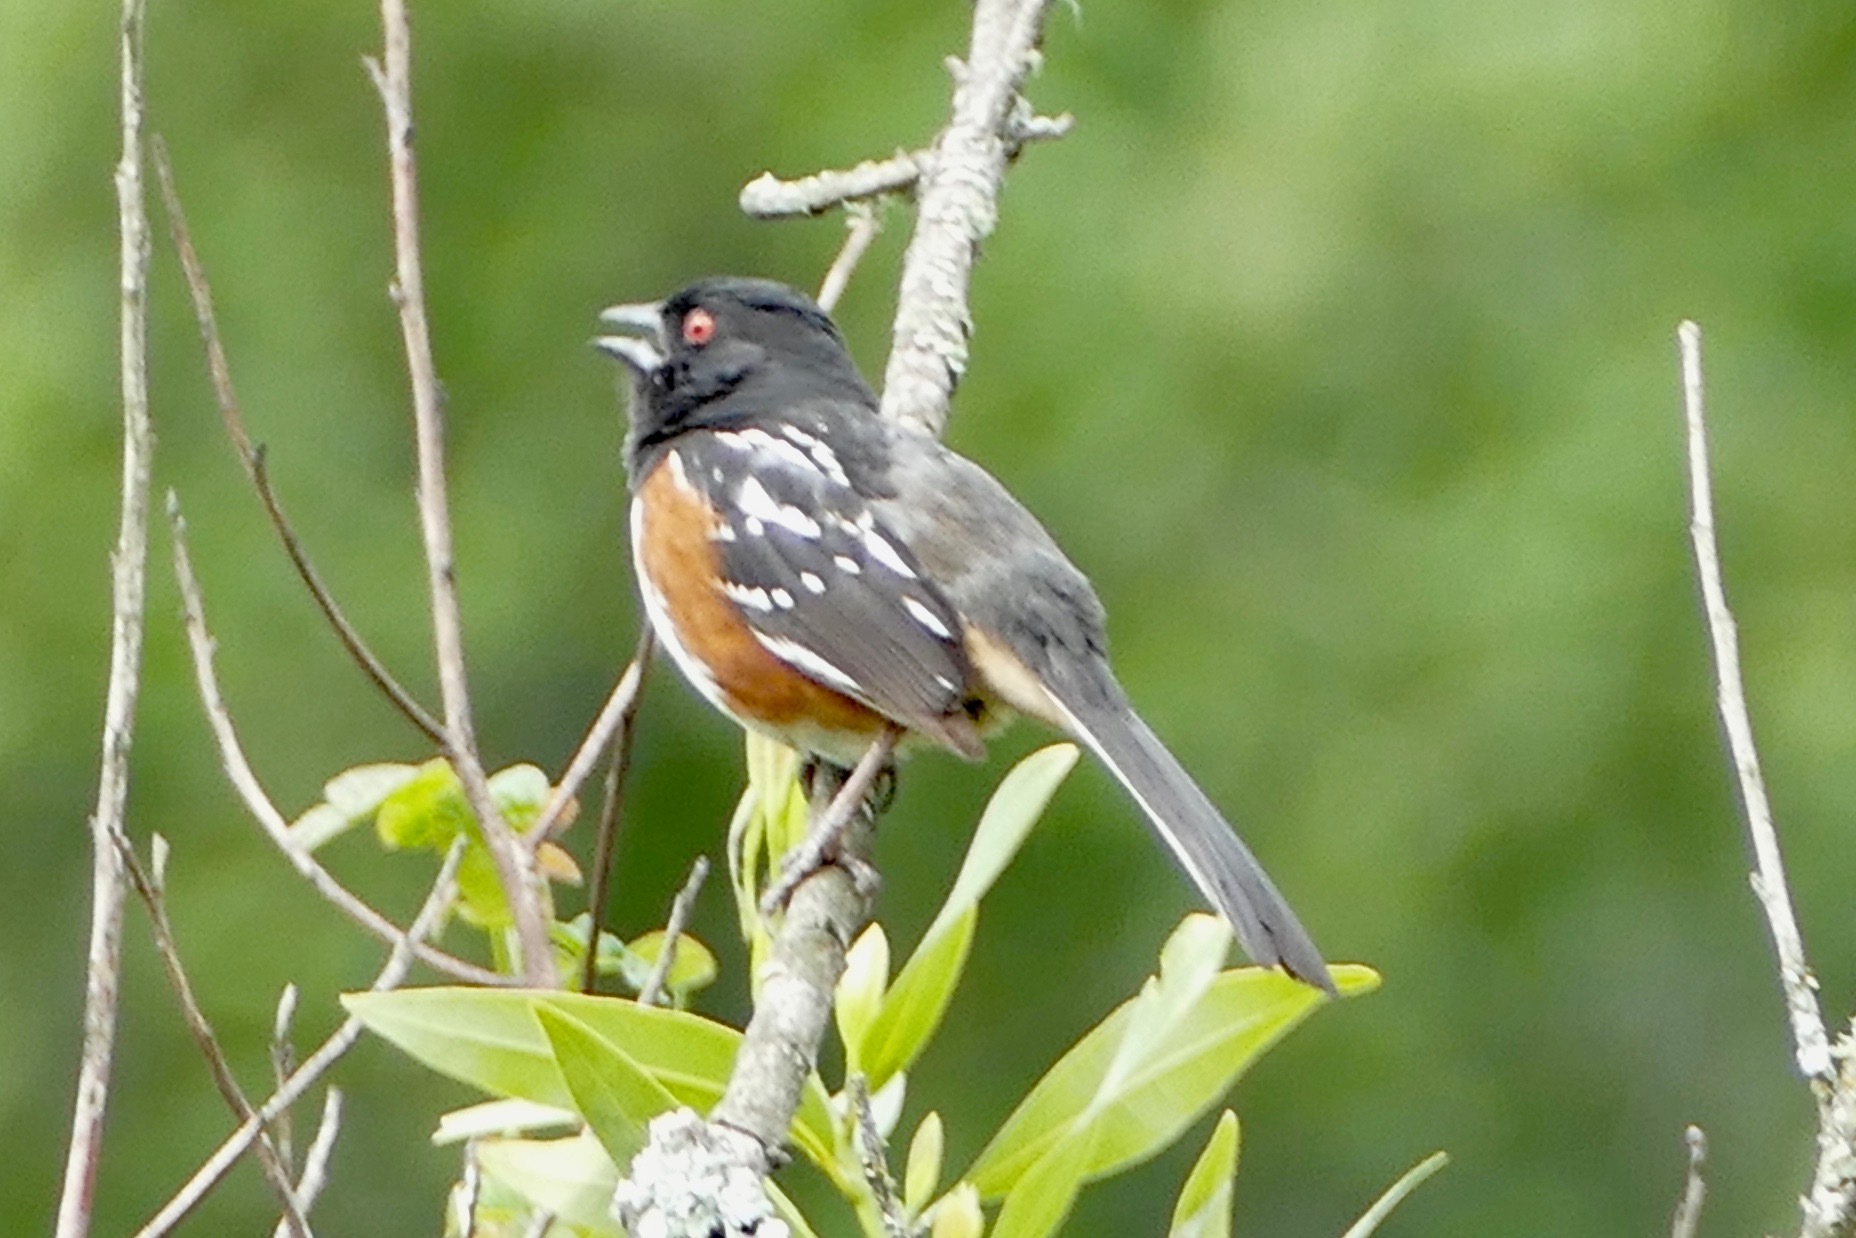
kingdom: Animalia
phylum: Chordata
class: Aves
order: Passeriformes
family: Passerellidae
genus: Pipilo
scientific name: Pipilo maculatus
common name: Spotted towhee
